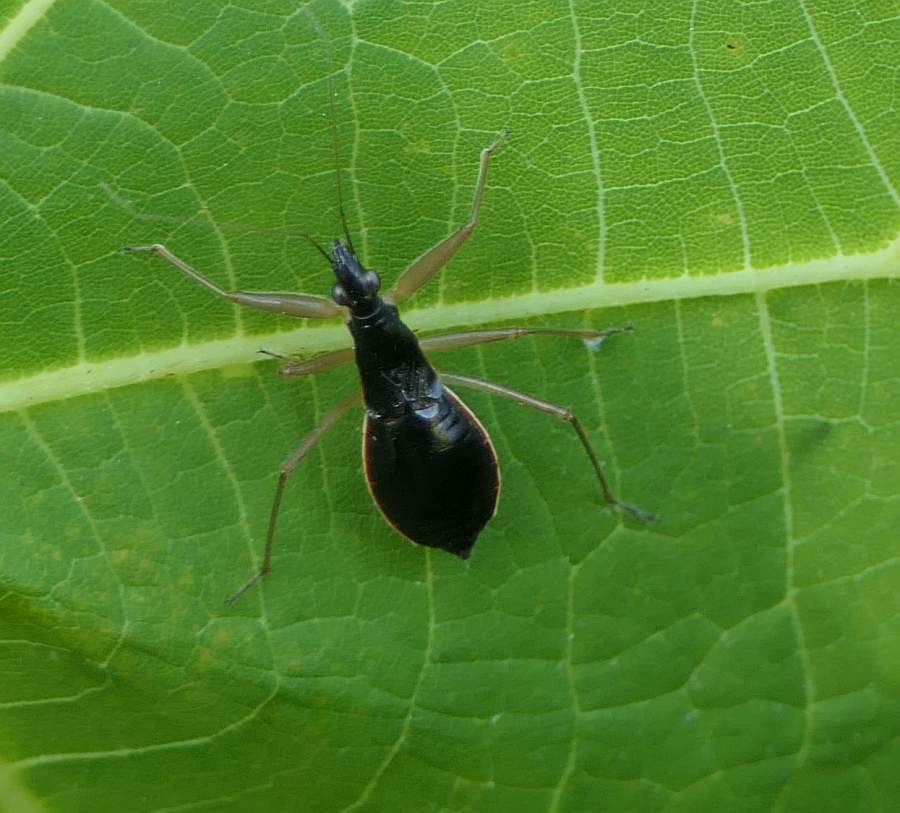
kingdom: Animalia
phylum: Arthropoda
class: Insecta
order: Hemiptera
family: Nabidae
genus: Nabis
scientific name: Nabis
